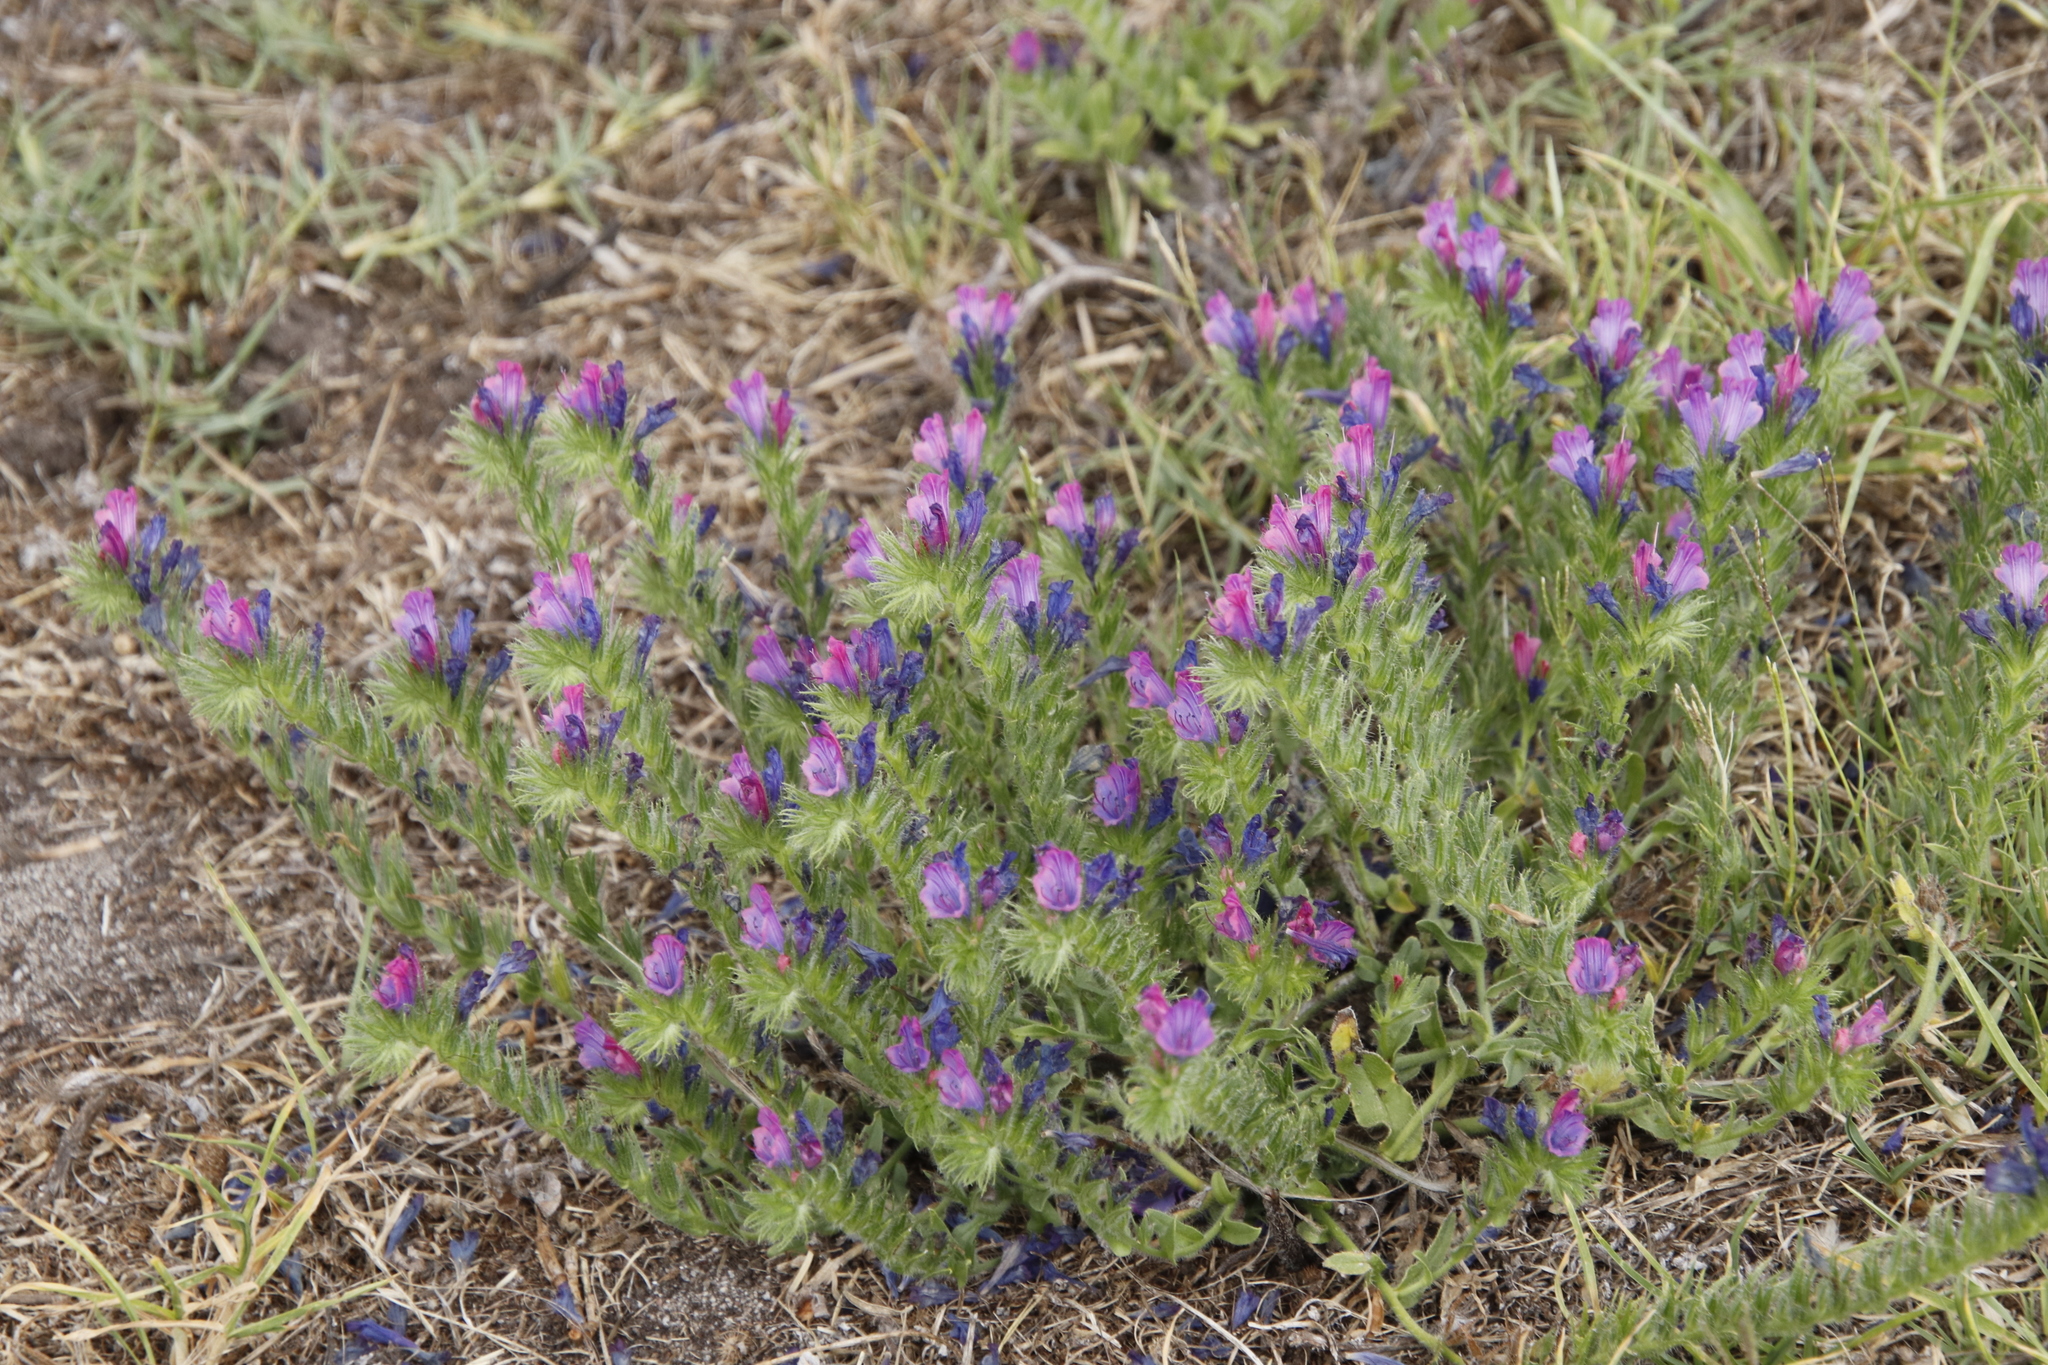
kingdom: Plantae
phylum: Tracheophyta
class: Magnoliopsida
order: Boraginales
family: Boraginaceae
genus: Echium
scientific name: Echium plantagineum
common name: Purple viper's-bugloss
